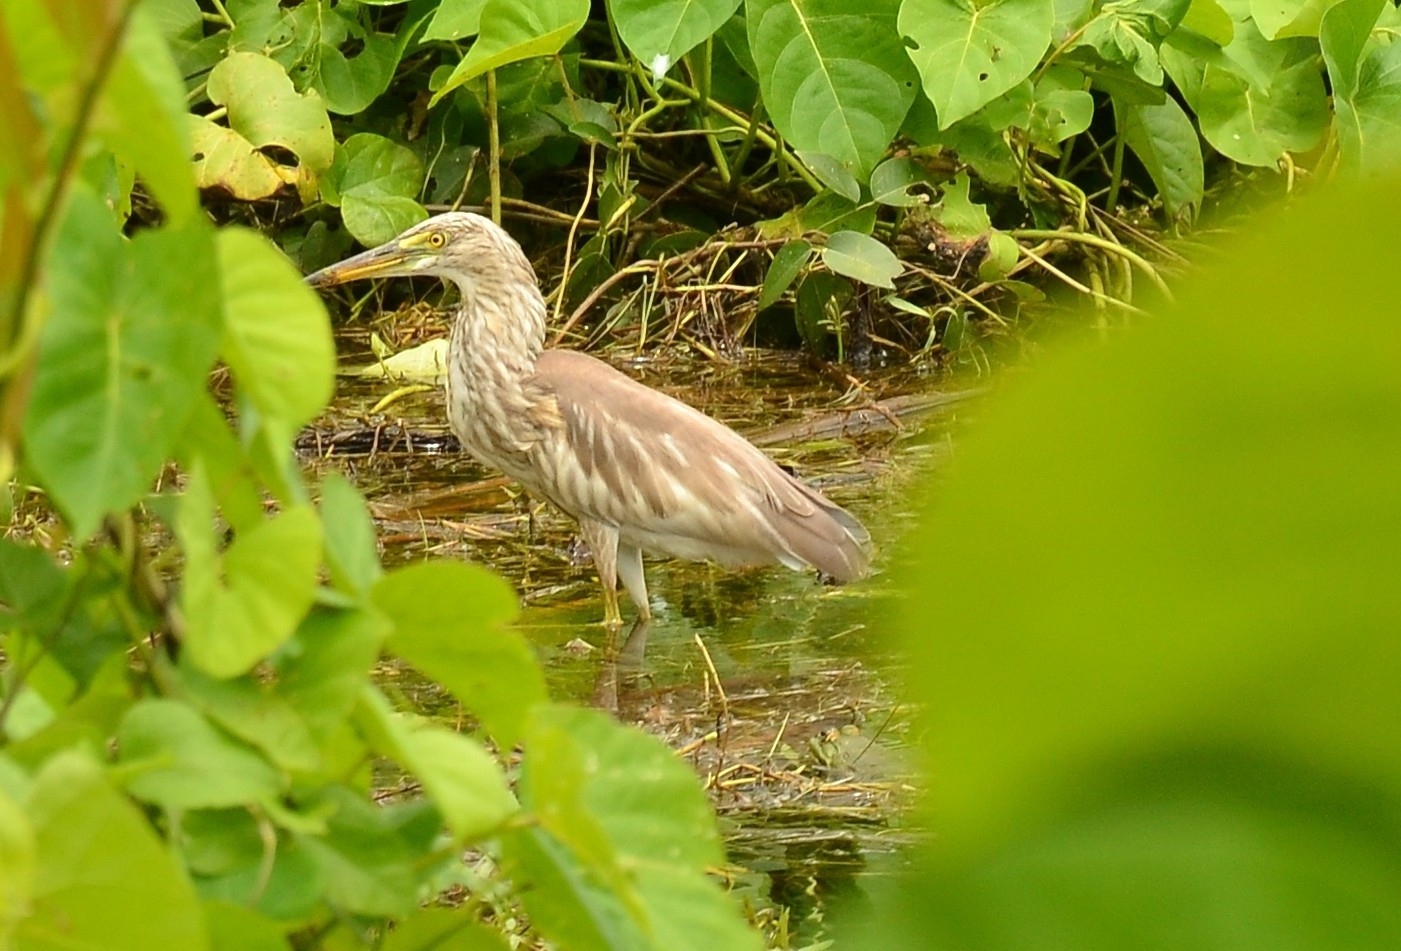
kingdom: Animalia
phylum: Chordata
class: Aves
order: Pelecaniformes
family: Ardeidae
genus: Ardeola
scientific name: Ardeola grayii
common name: Indian pond heron
